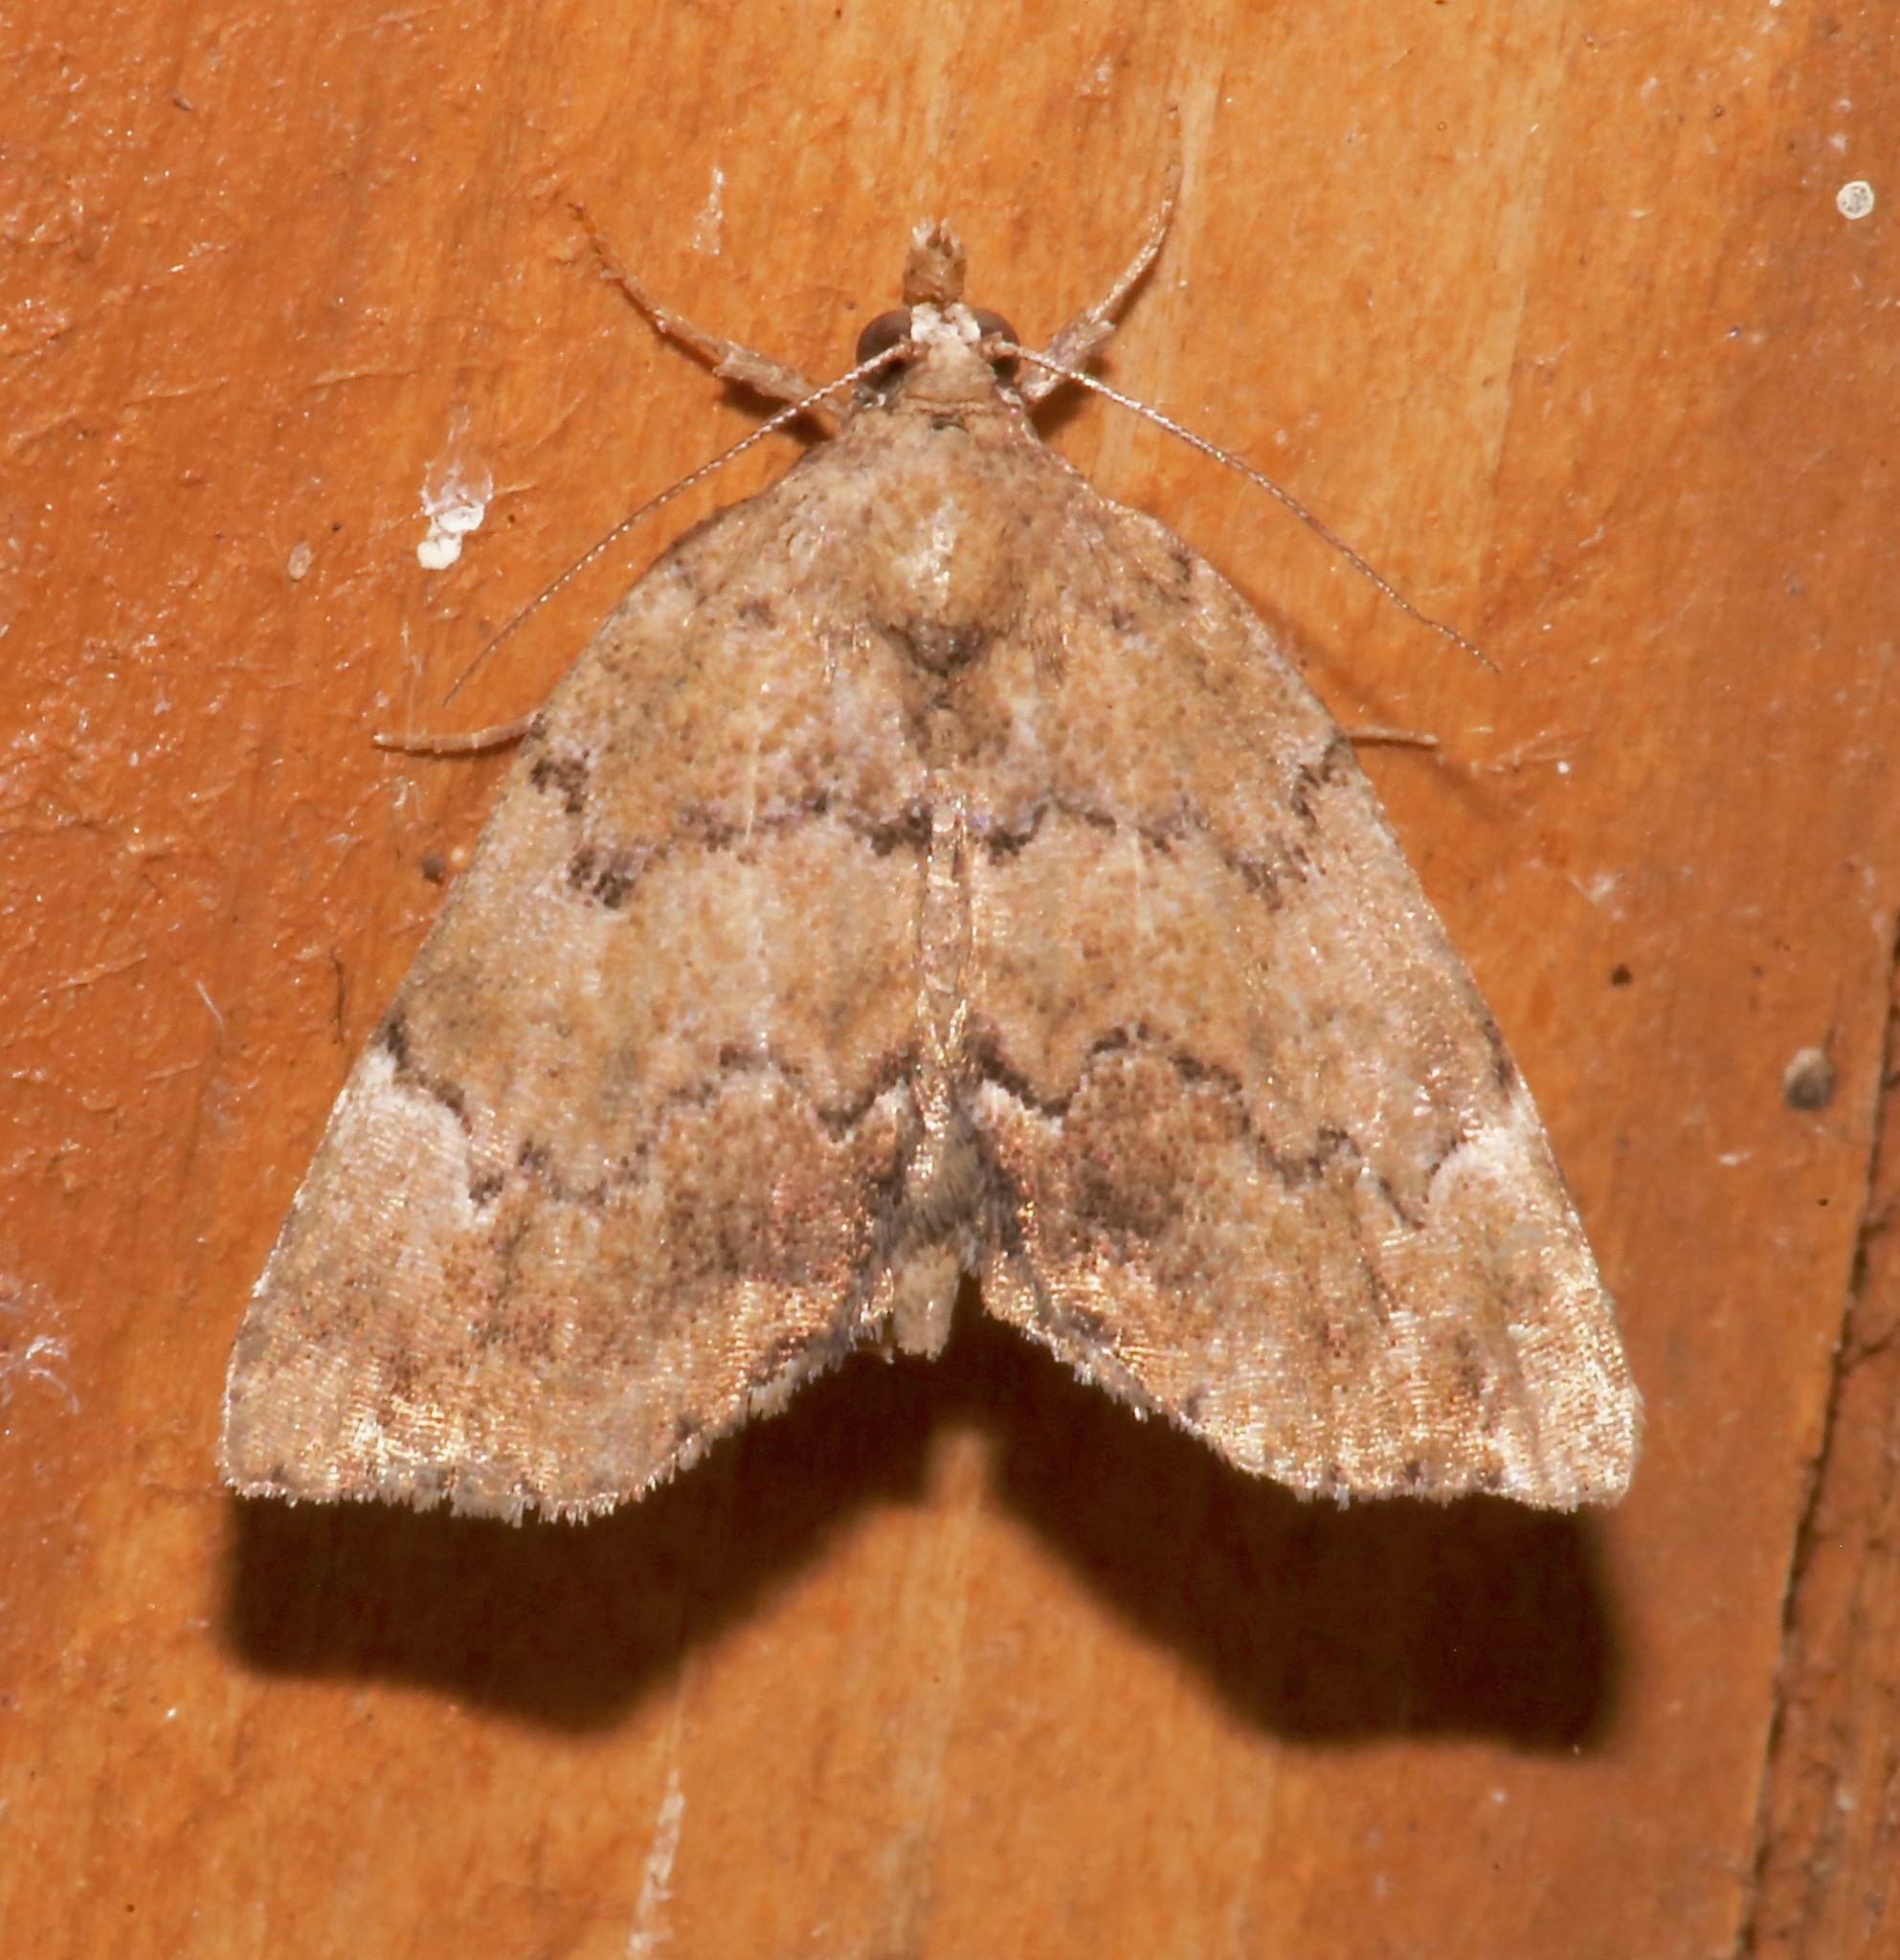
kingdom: Animalia
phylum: Arthropoda
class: Insecta
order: Lepidoptera
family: Erebidae
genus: Cutina
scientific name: Cutina aluticolor
